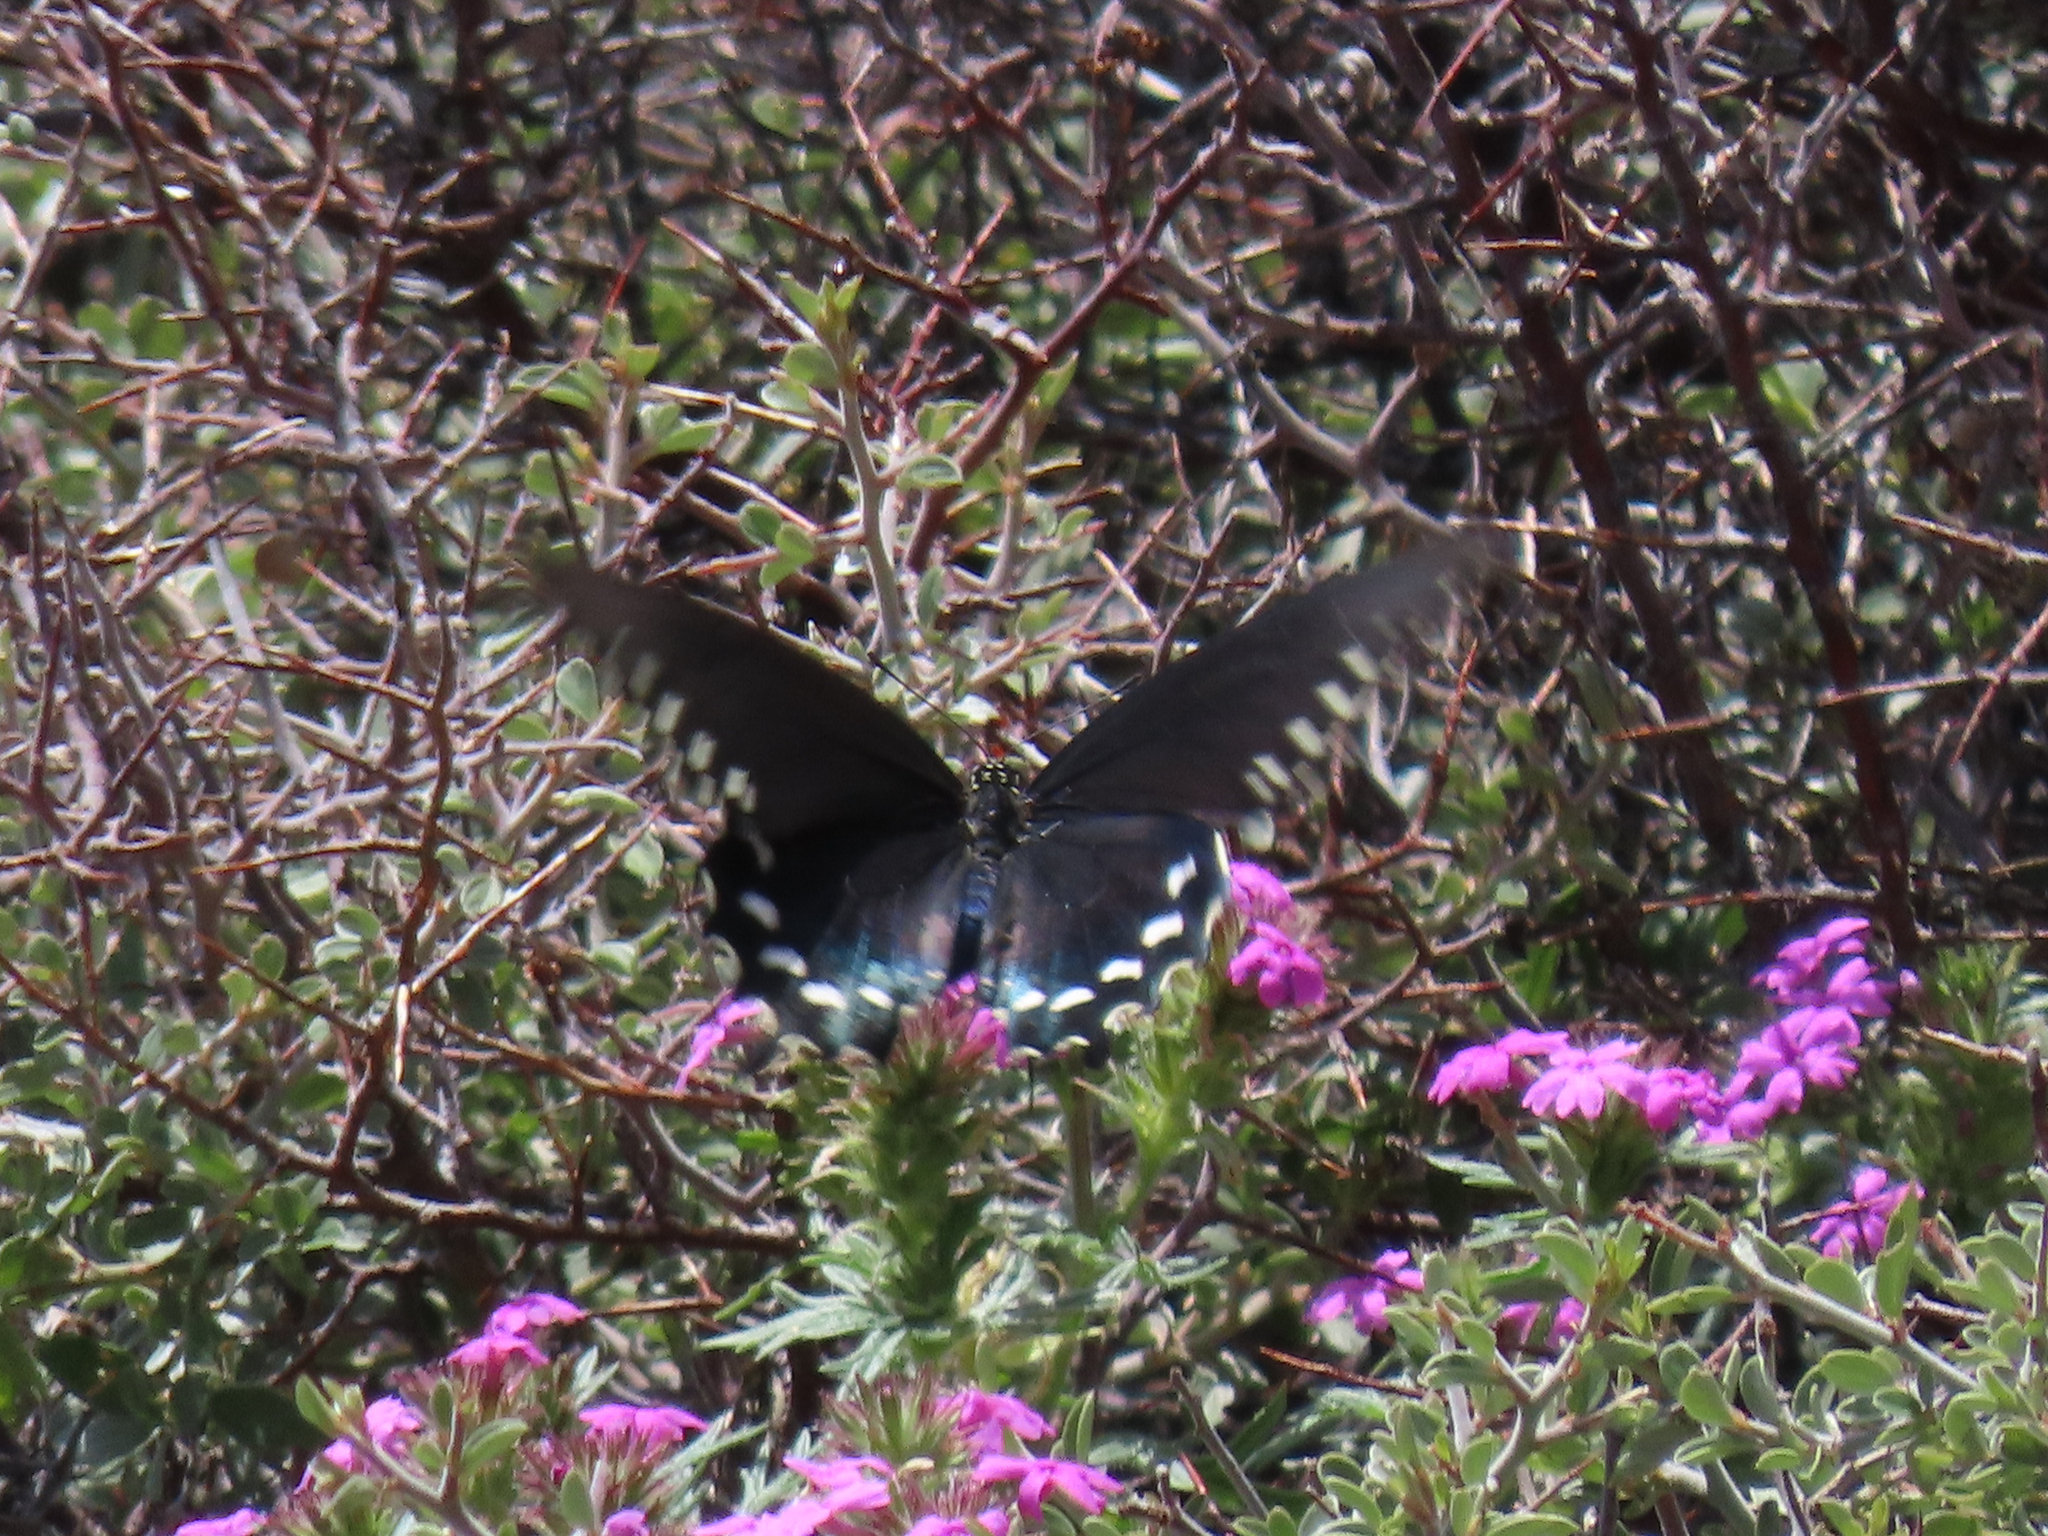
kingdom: Animalia
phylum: Arthropoda
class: Insecta
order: Lepidoptera
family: Papilionidae
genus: Battus
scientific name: Battus philenor
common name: Pipevine swallowtail
